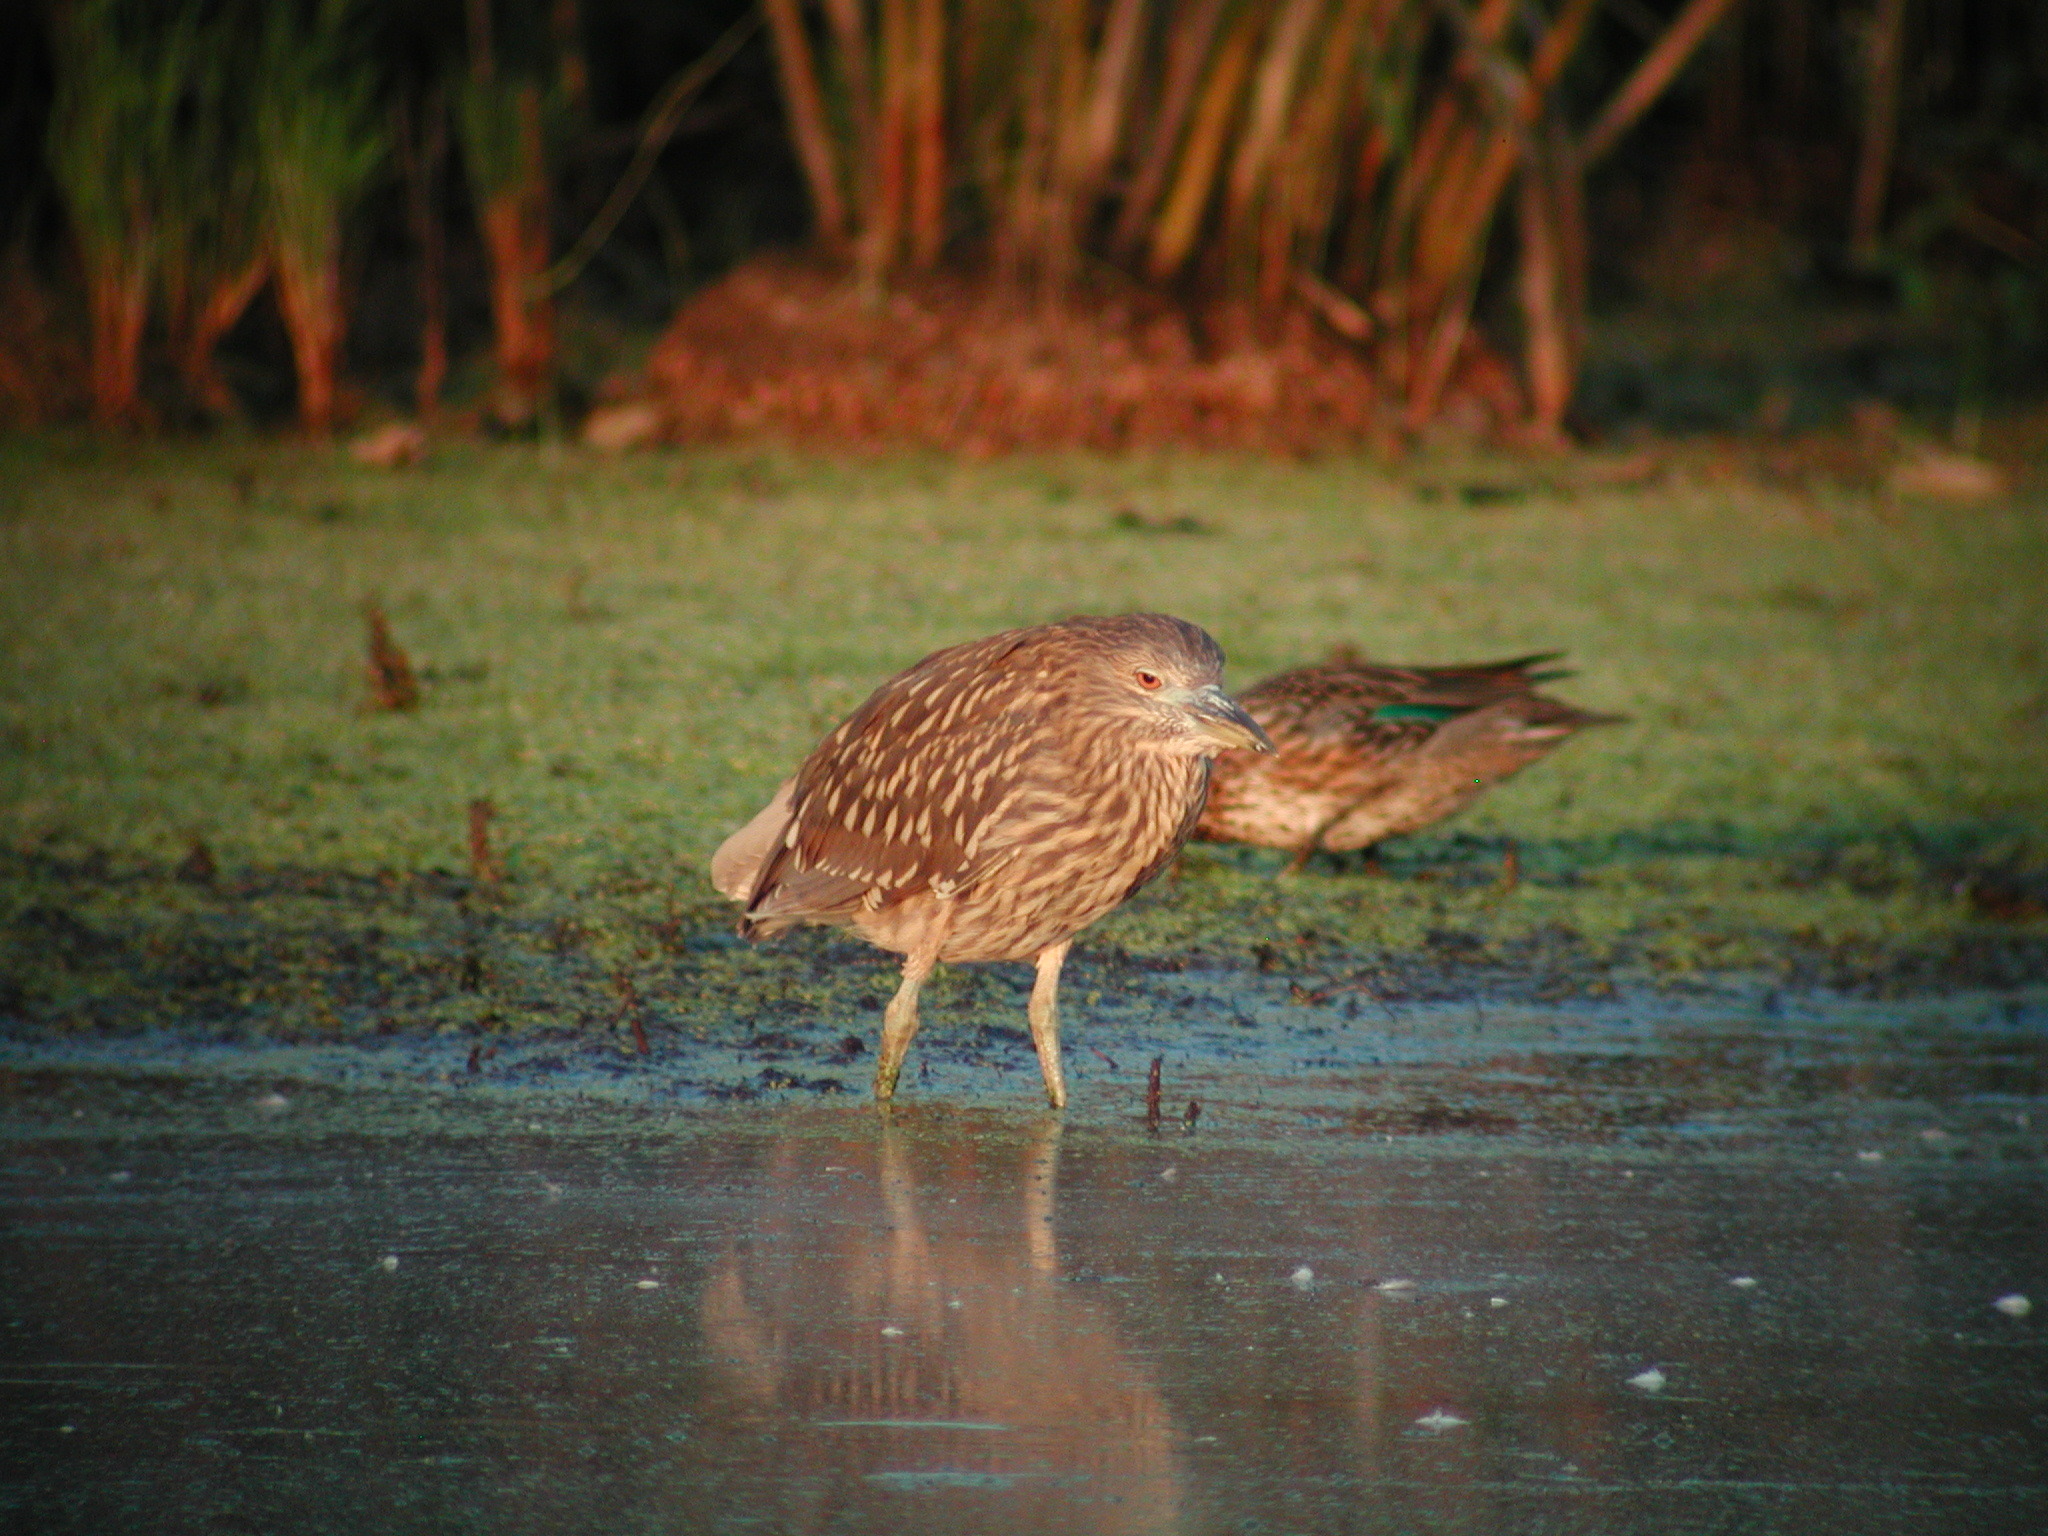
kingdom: Animalia
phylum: Chordata
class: Aves
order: Pelecaniformes
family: Ardeidae
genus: Nycticorax
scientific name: Nycticorax nycticorax
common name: Black-crowned night heron
